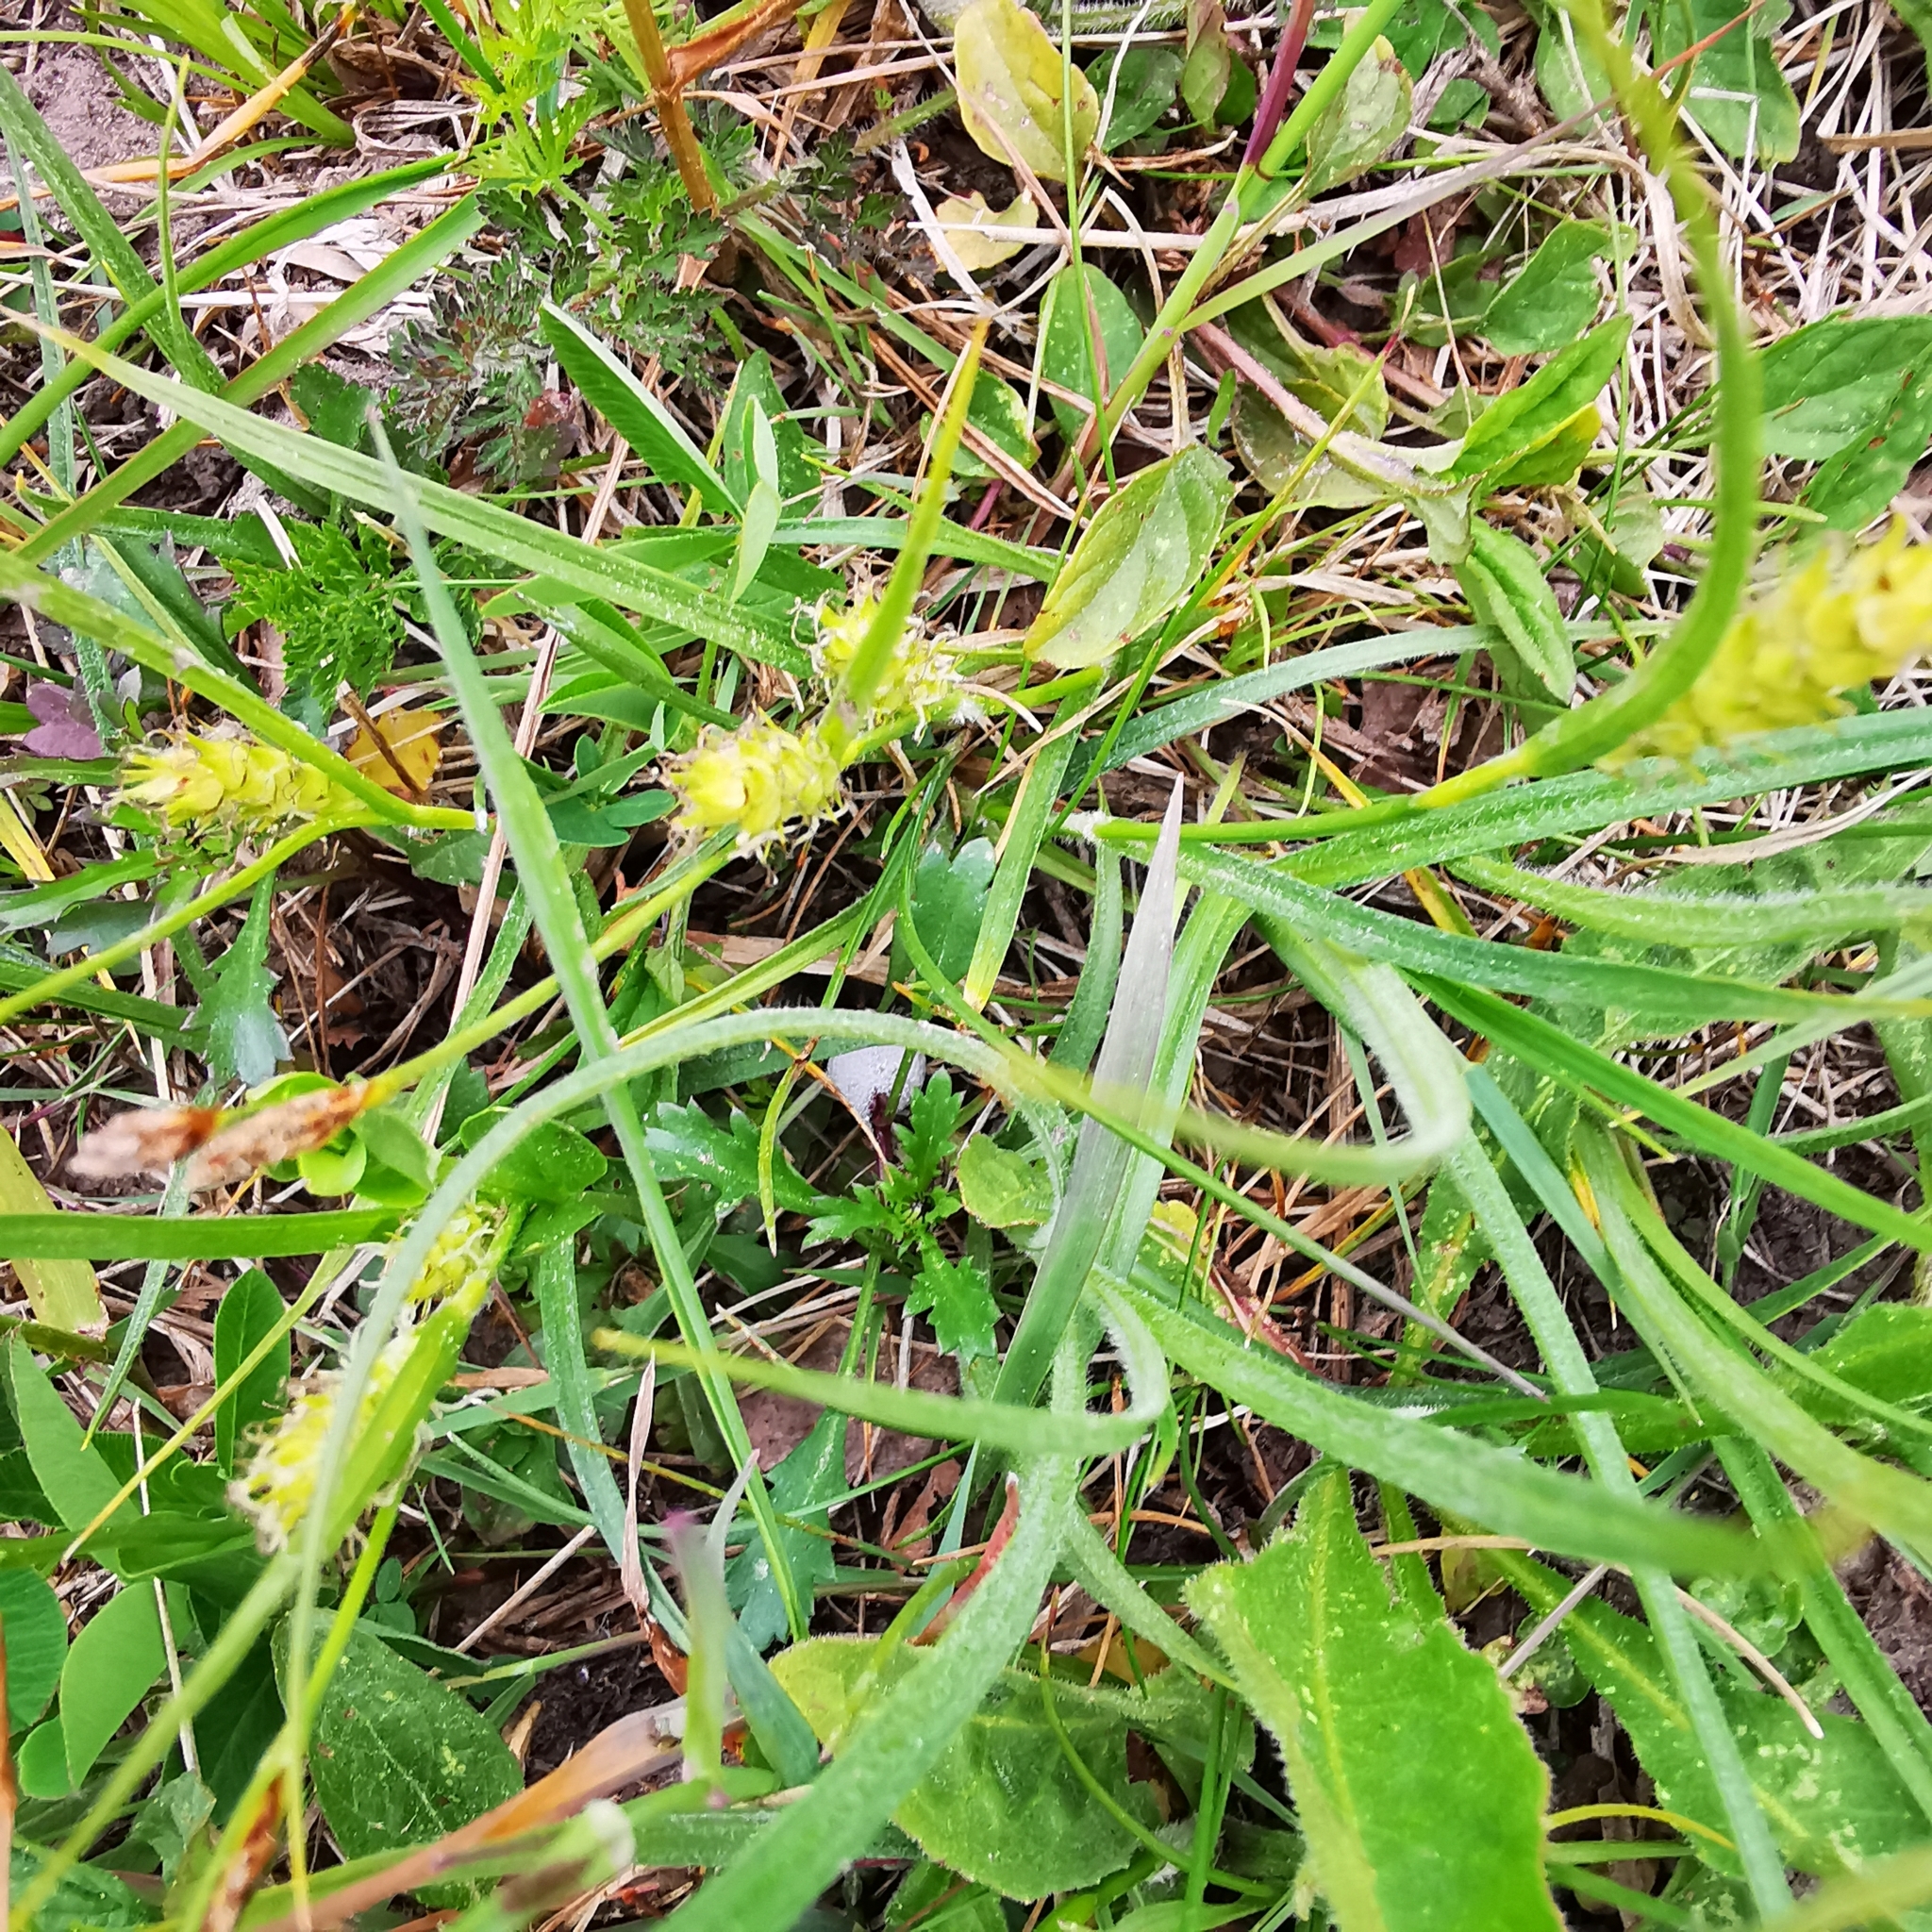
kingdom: Plantae
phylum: Tracheophyta
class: Liliopsida
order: Poales
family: Cyperaceae
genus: Carex
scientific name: Carex hirta
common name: Hairy sedge
